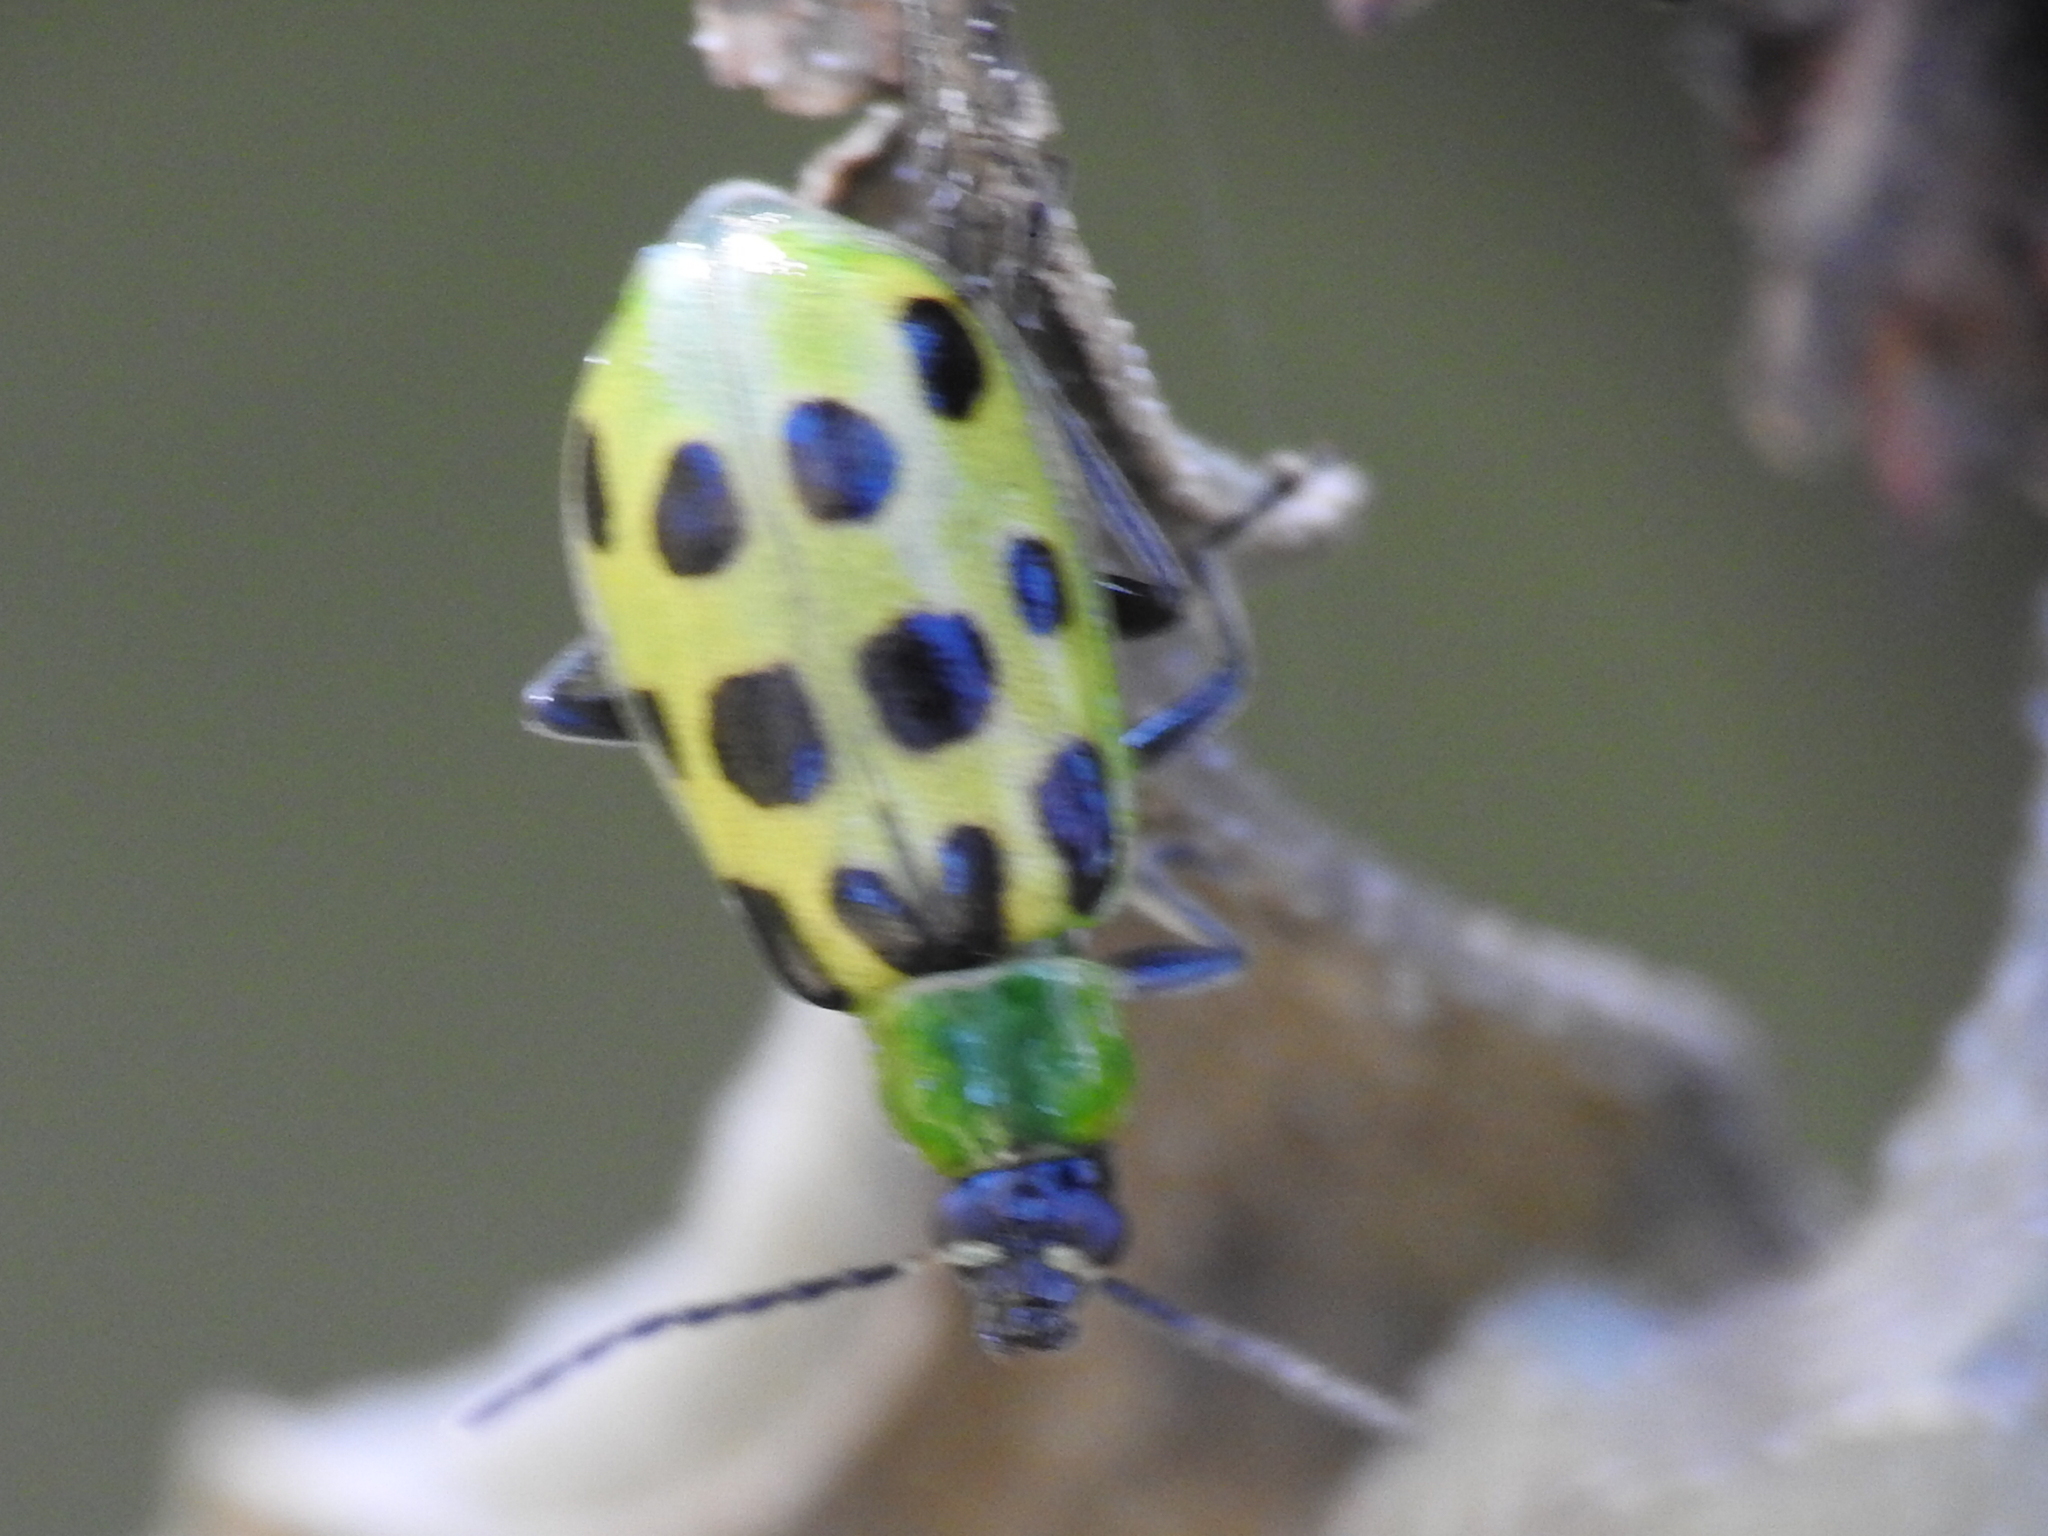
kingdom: Animalia
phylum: Arthropoda
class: Insecta
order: Coleoptera
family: Chrysomelidae
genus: Diabrotica
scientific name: Diabrotica undecimpunctata
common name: Spotted cucumber beetle
